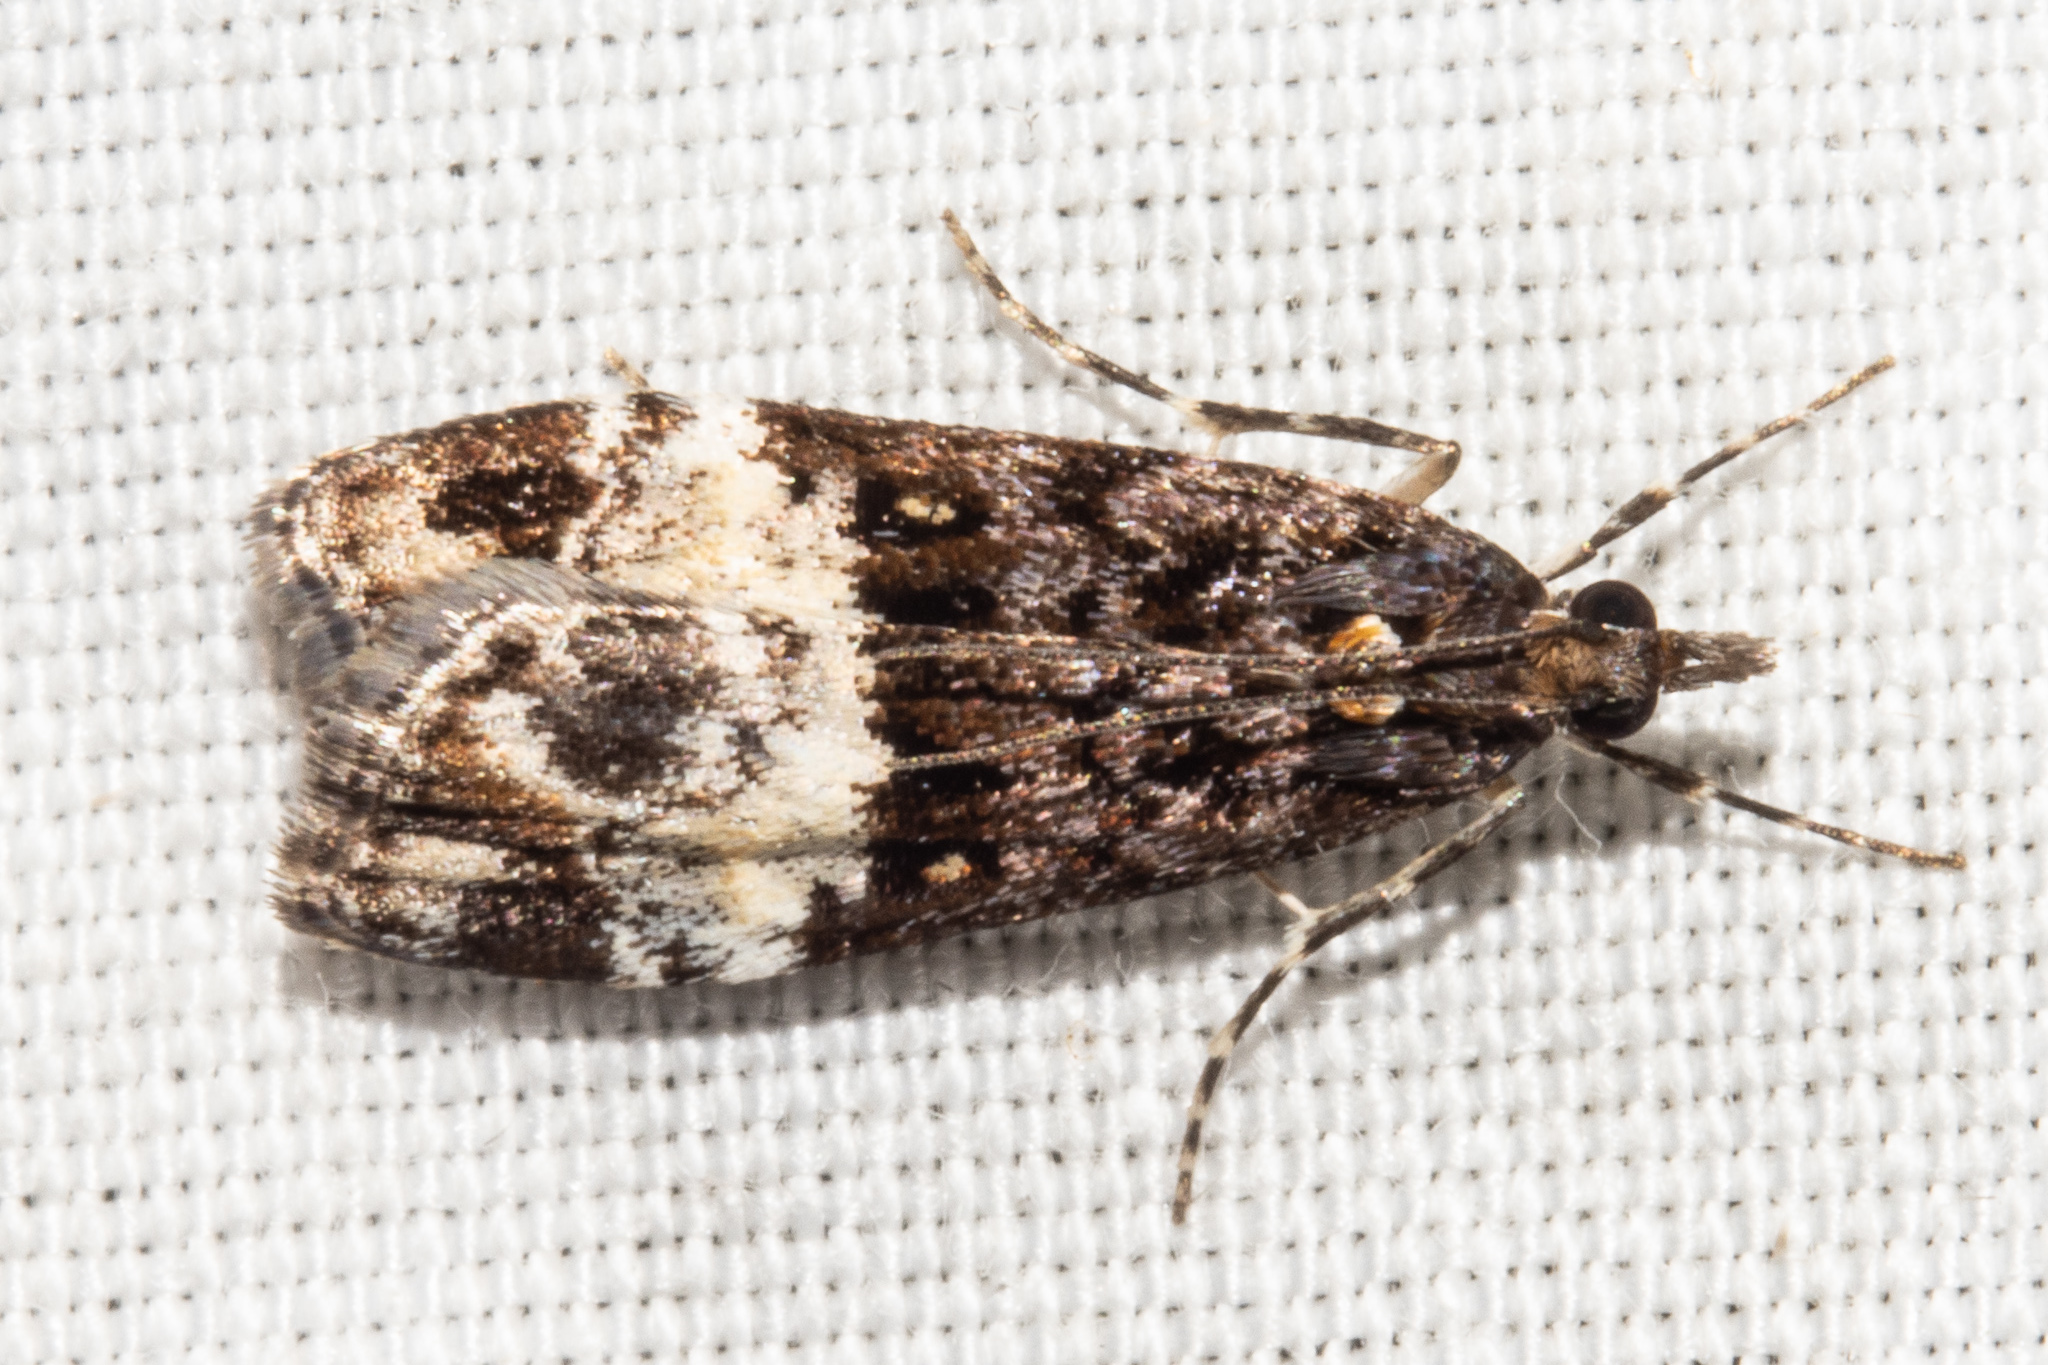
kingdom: Animalia
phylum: Arthropoda
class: Insecta
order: Lepidoptera
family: Crambidae
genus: Scoparia
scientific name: Scoparia minusculalis
